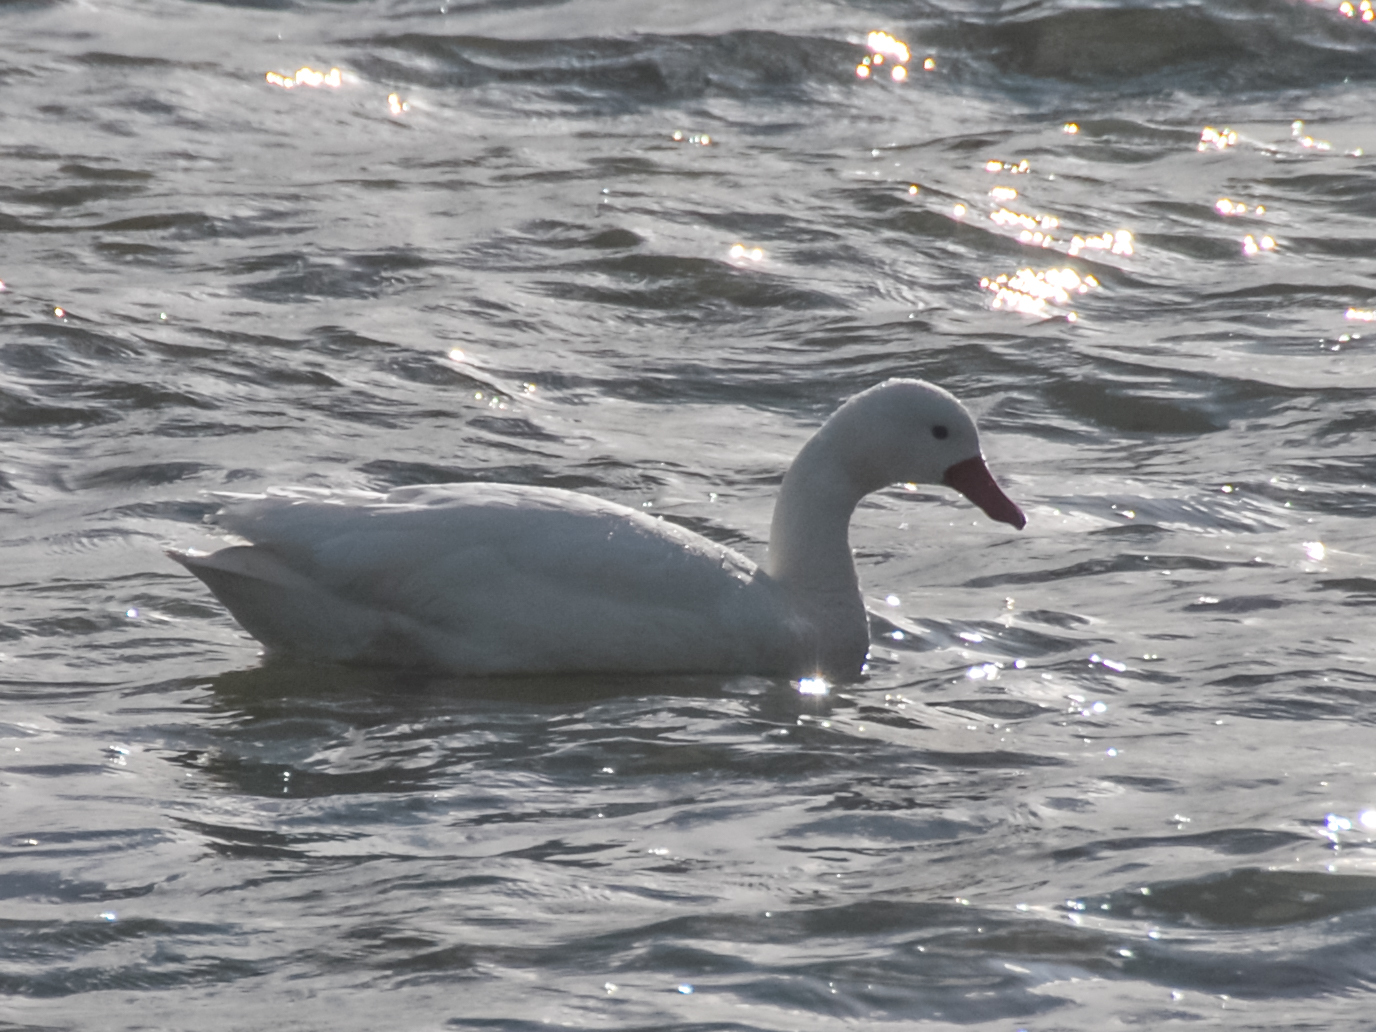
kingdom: Animalia
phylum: Chordata
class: Aves
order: Anseriformes
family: Anatidae
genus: Coscoroba
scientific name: Coscoroba coscoroba
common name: Coscoroba swan
